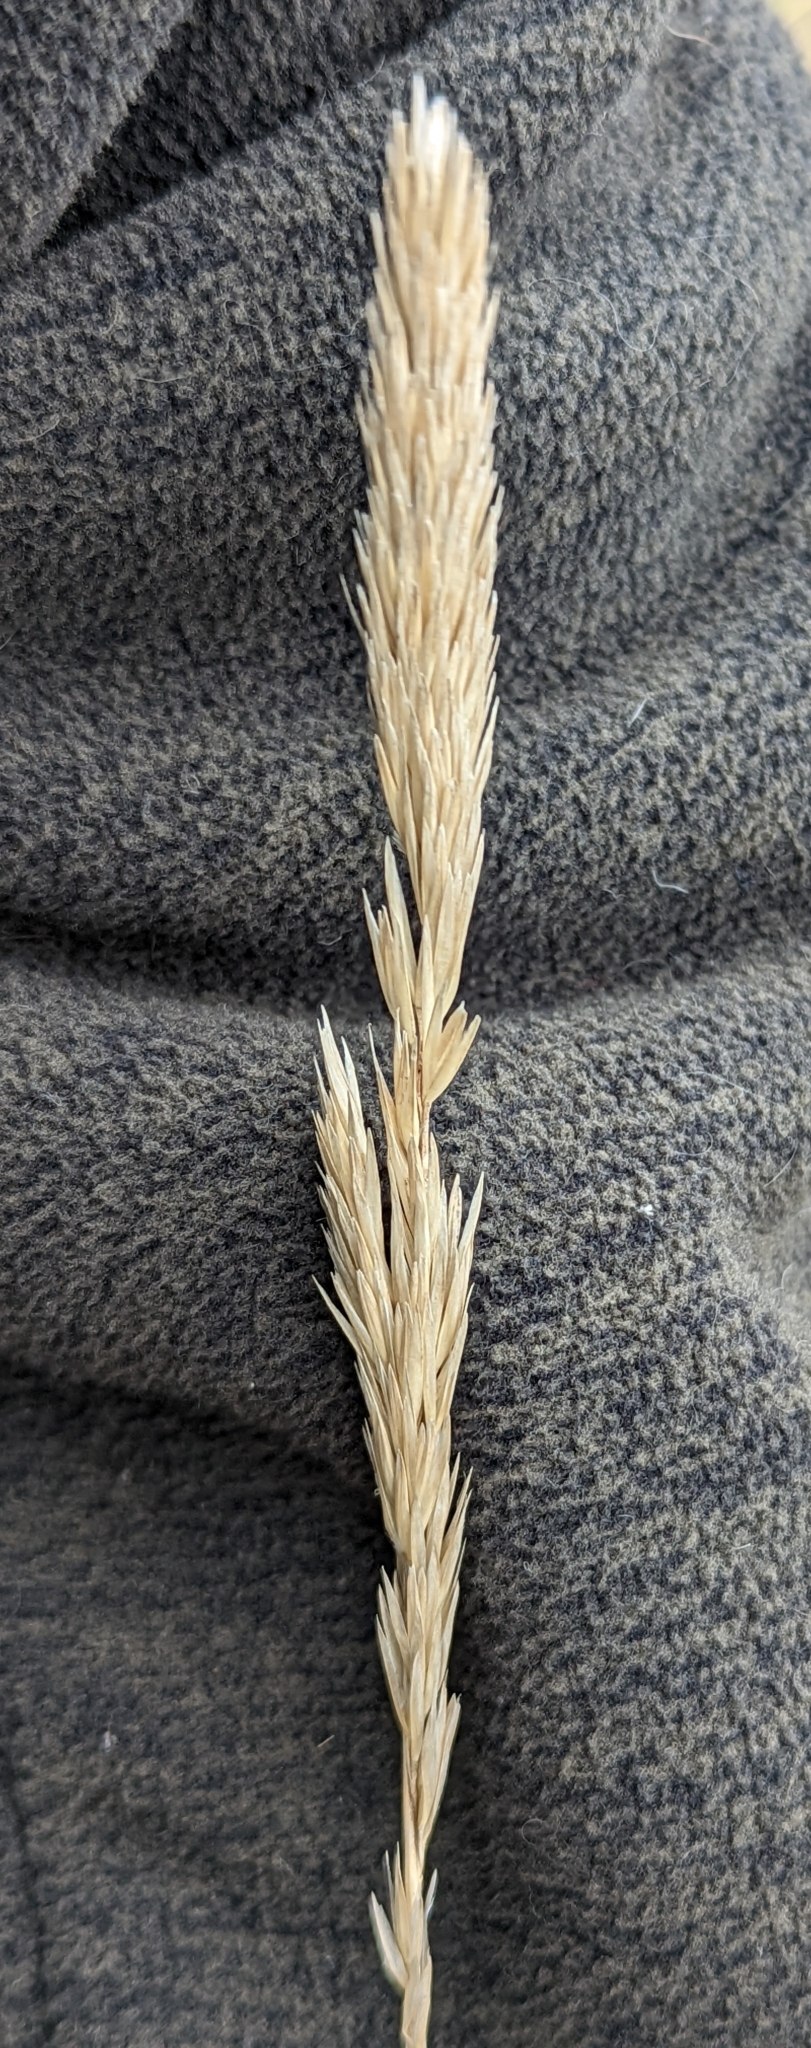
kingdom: Plantae
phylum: Tracheophyta
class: Liliopsida
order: Poales
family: Poaceae
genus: Calamagrostis
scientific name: Calamagrostis arenaria
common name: European beachgrass
